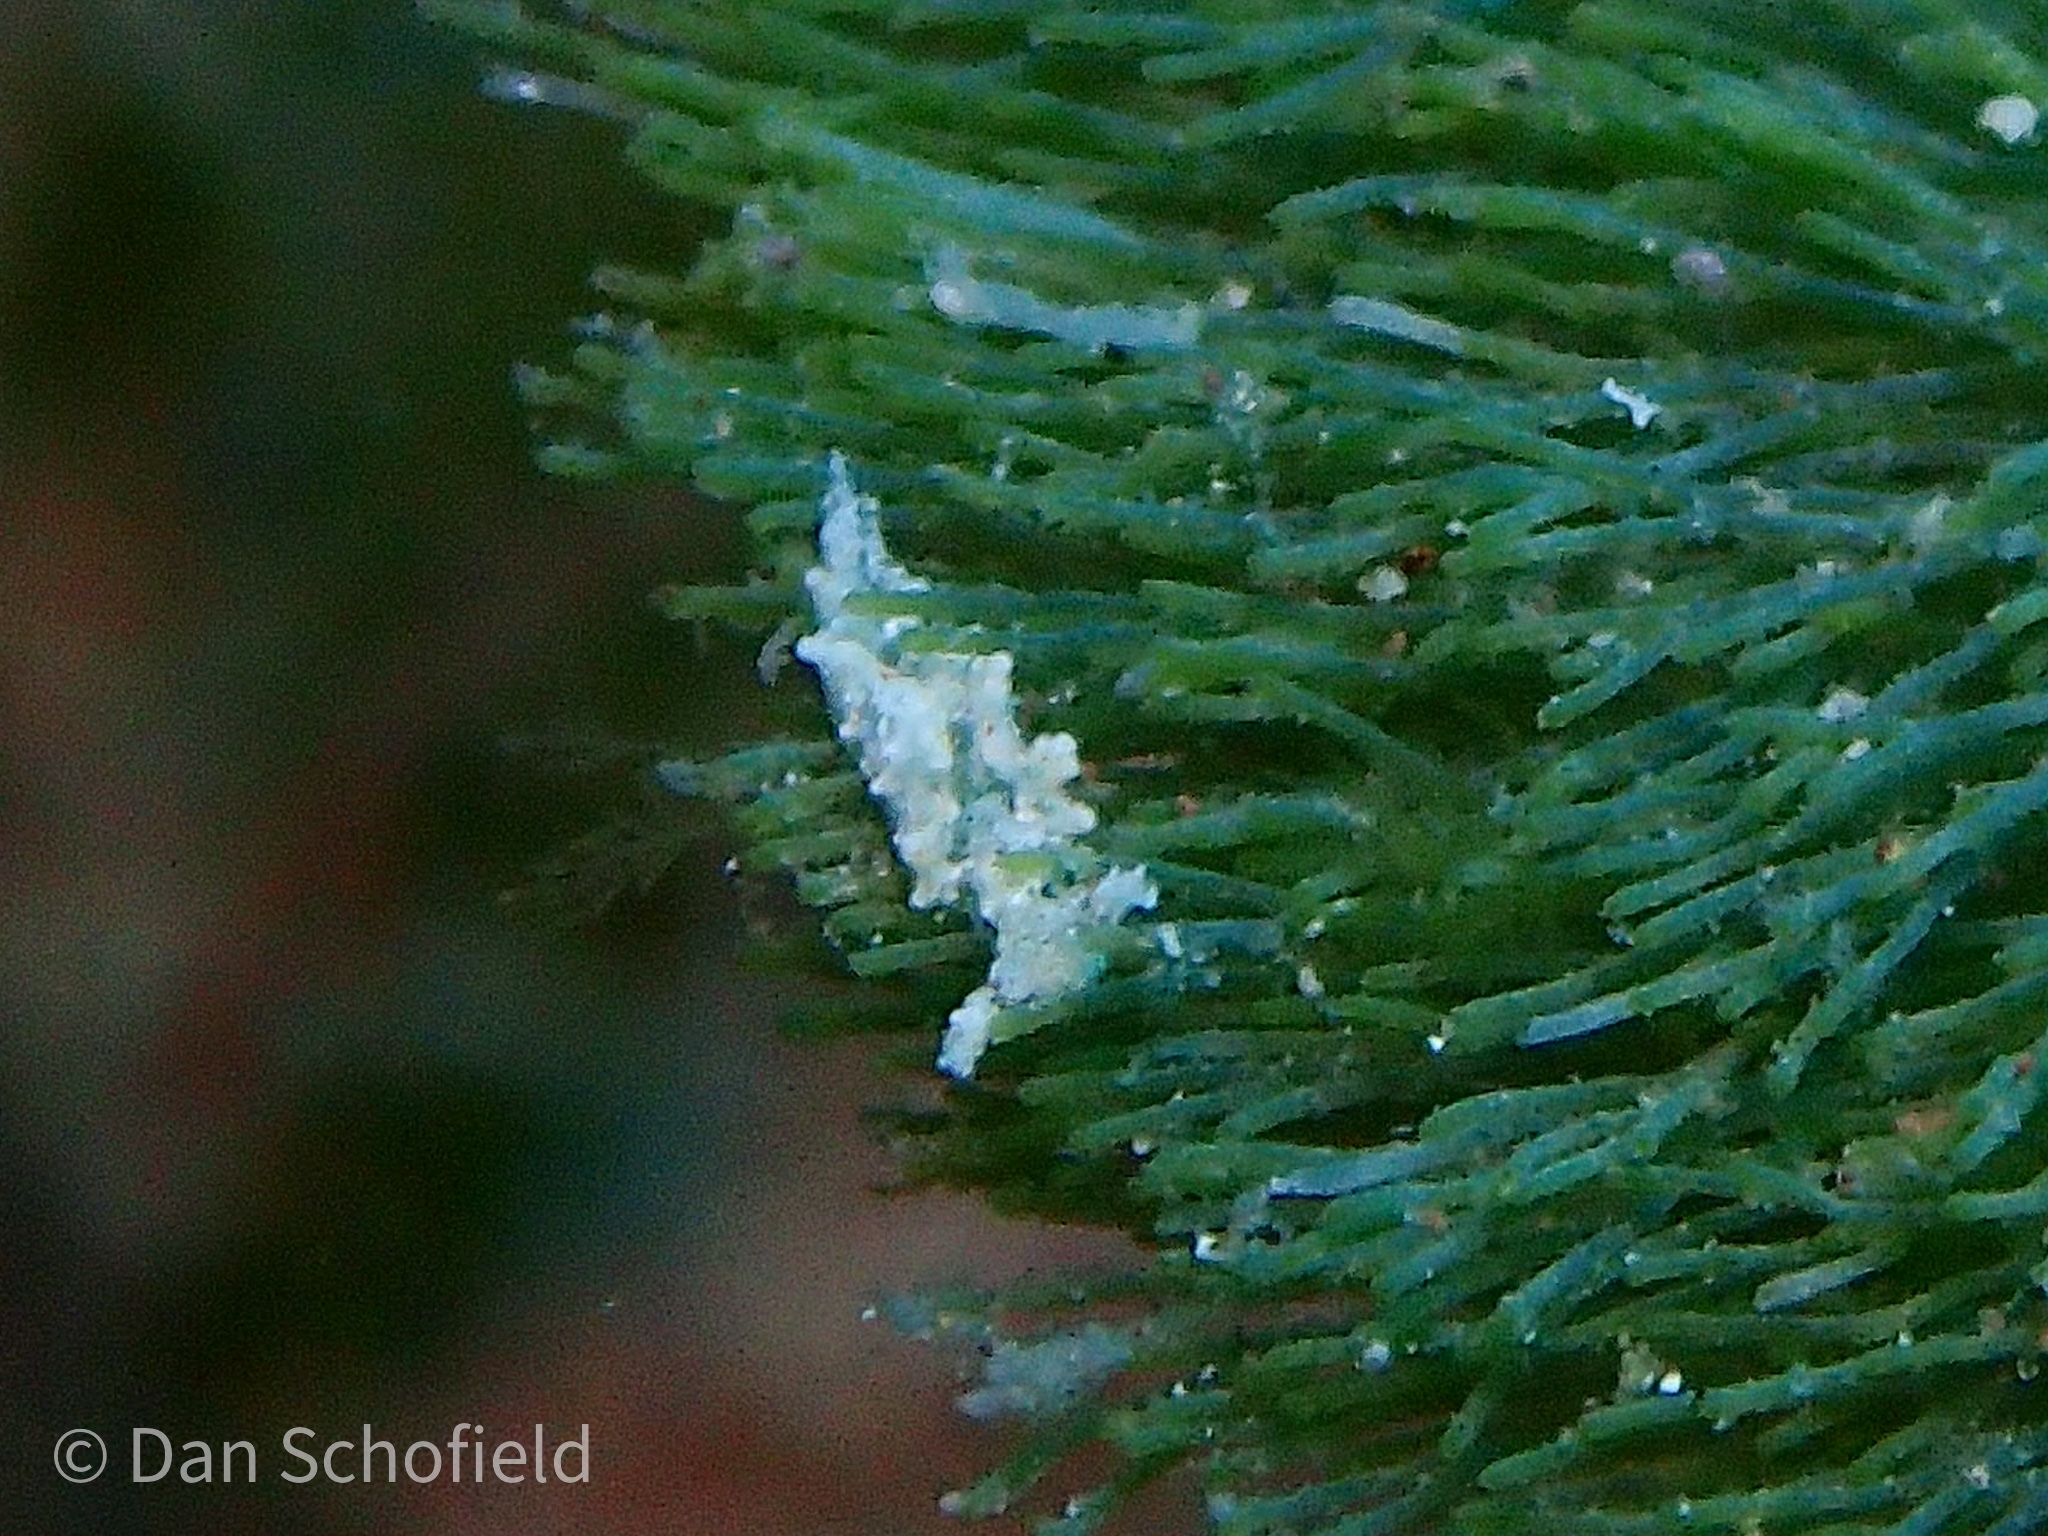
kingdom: Animalia
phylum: Mollusca
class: Gastropoda
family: Plakobranchidae
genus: Elysia
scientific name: Elysia papillosa
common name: Papillose elysia
